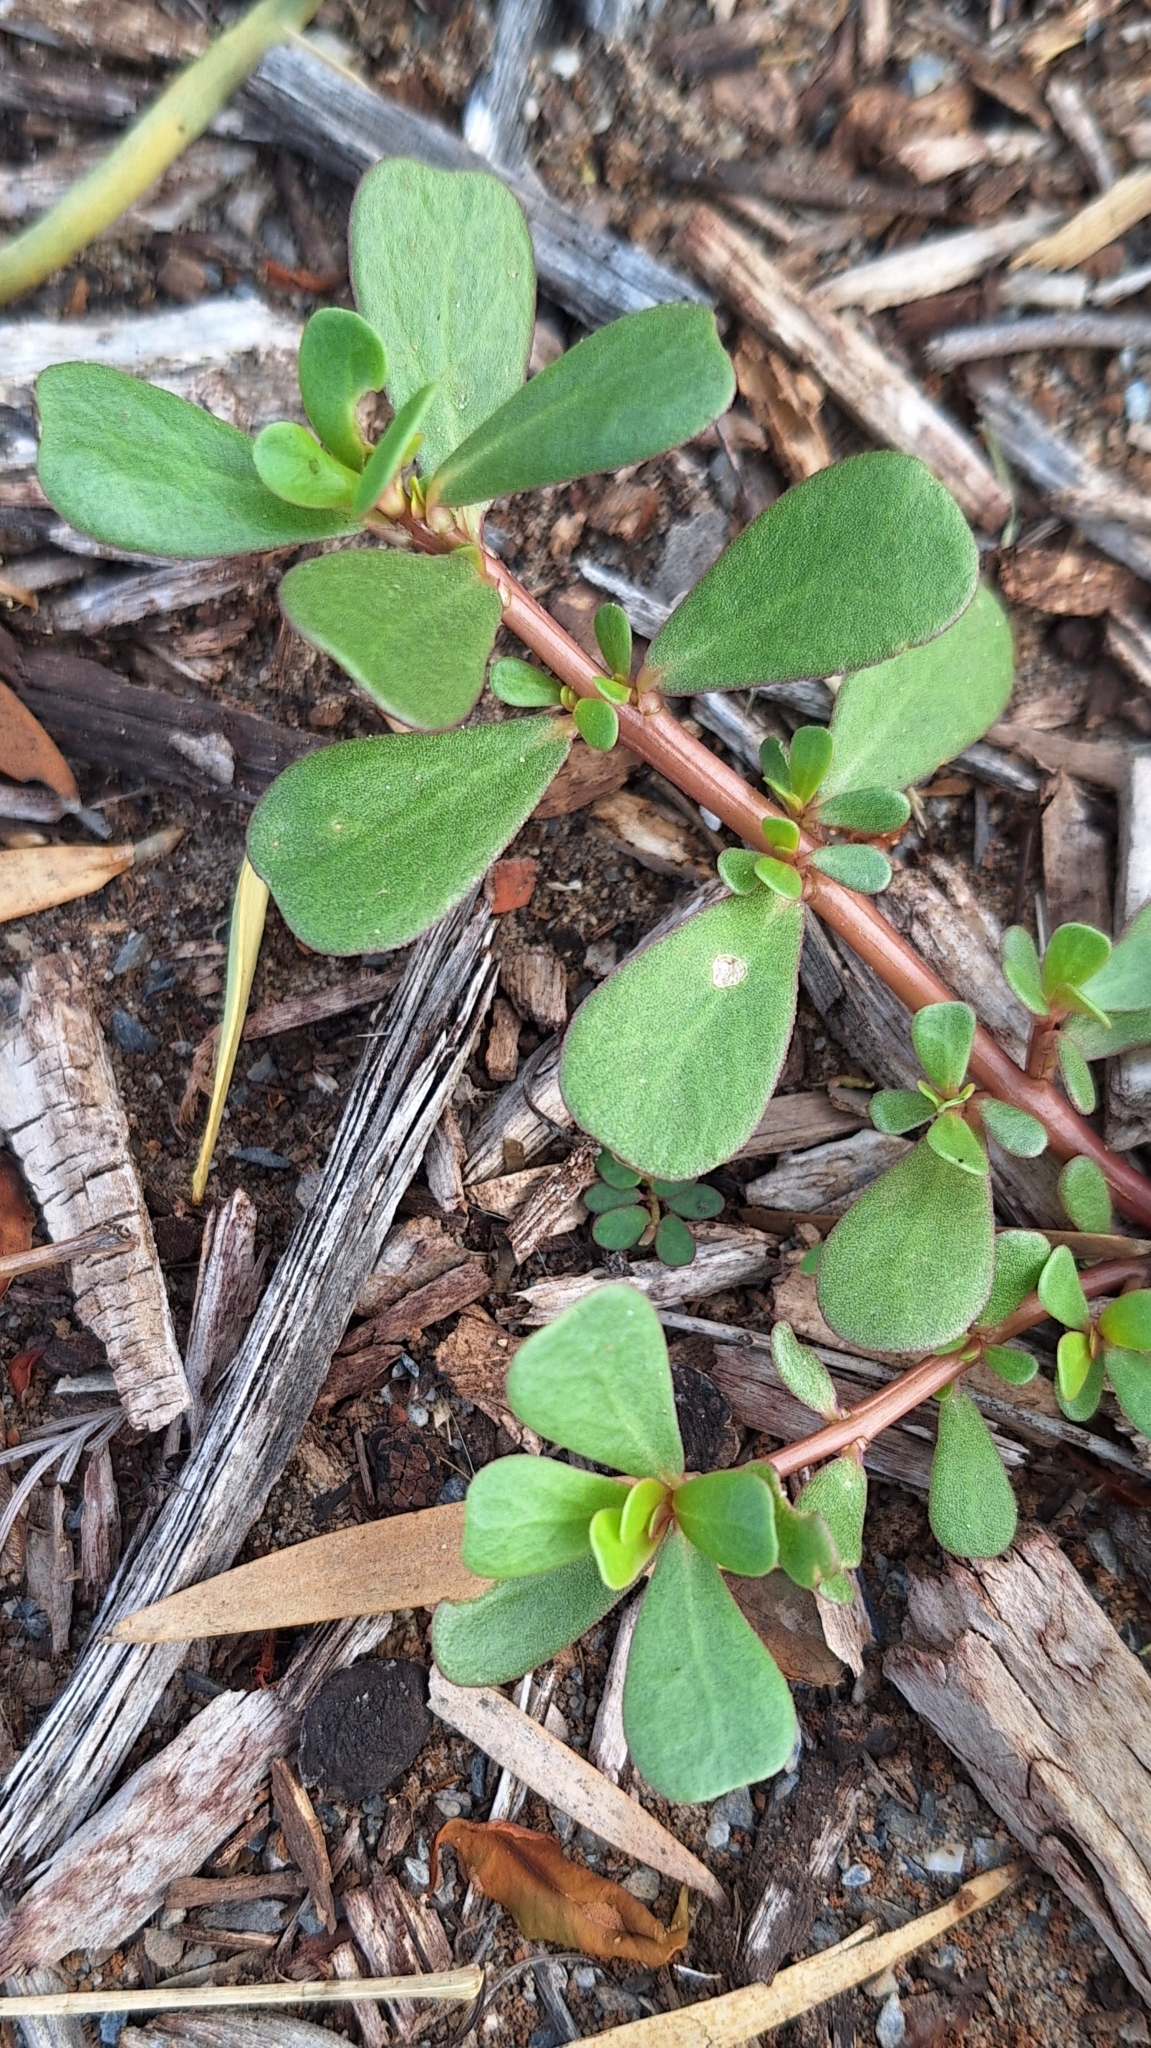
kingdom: Plantae
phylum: Tracheophyta
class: Magnoliopsida
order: Caryophyllales
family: Portulacaceae
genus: Portulaca
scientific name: Portulaca oleracea
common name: Common purslane
